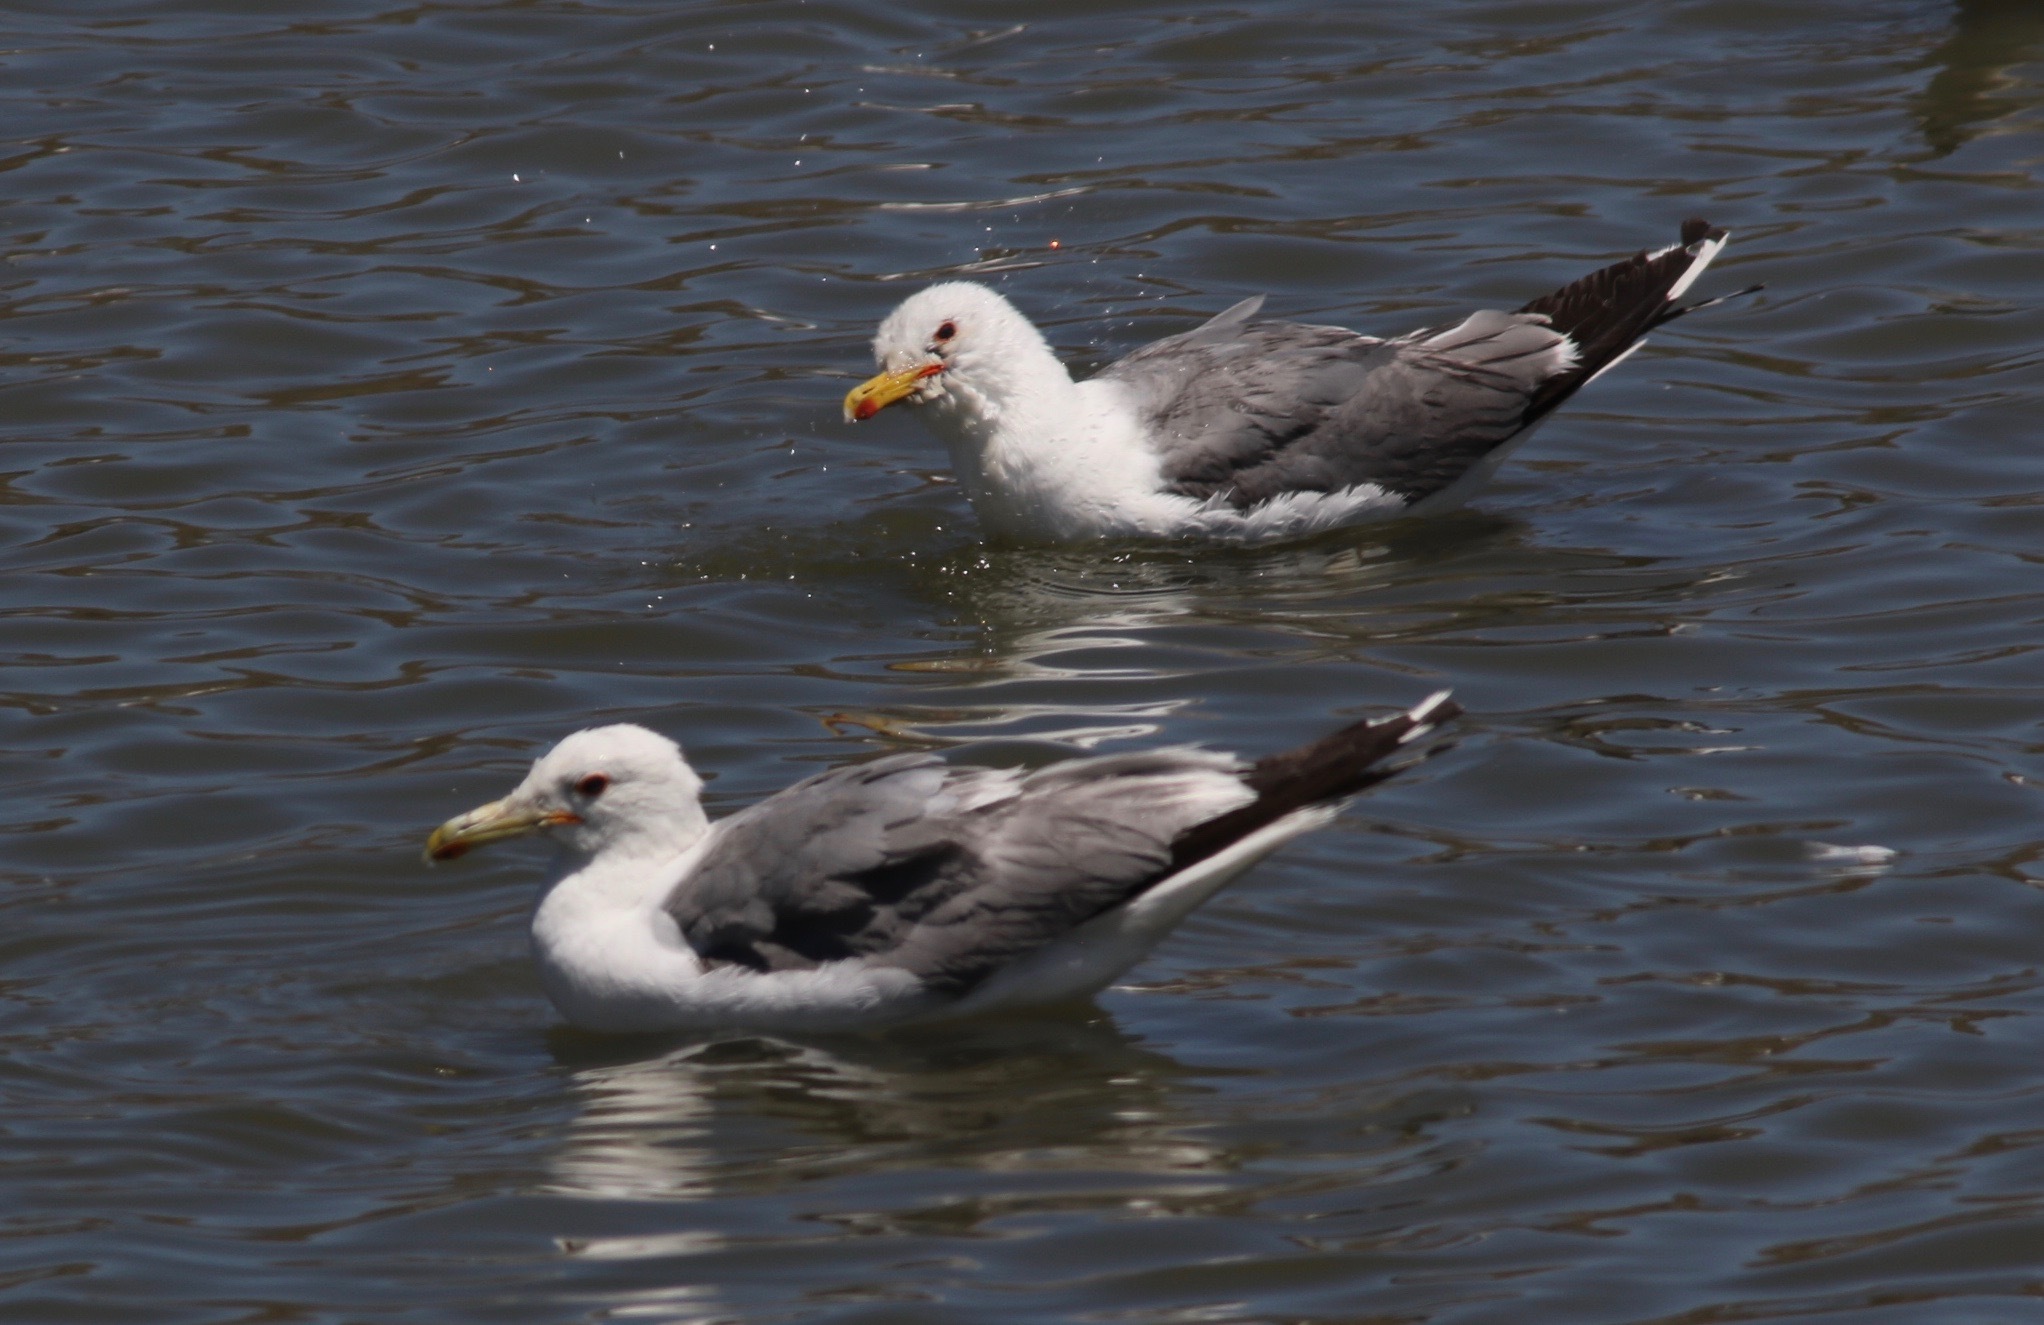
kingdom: Animalia
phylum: Chordata
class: Aves
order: Charadriiformes
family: Laridae
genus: Larus
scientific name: Larus californicus
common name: California gull
